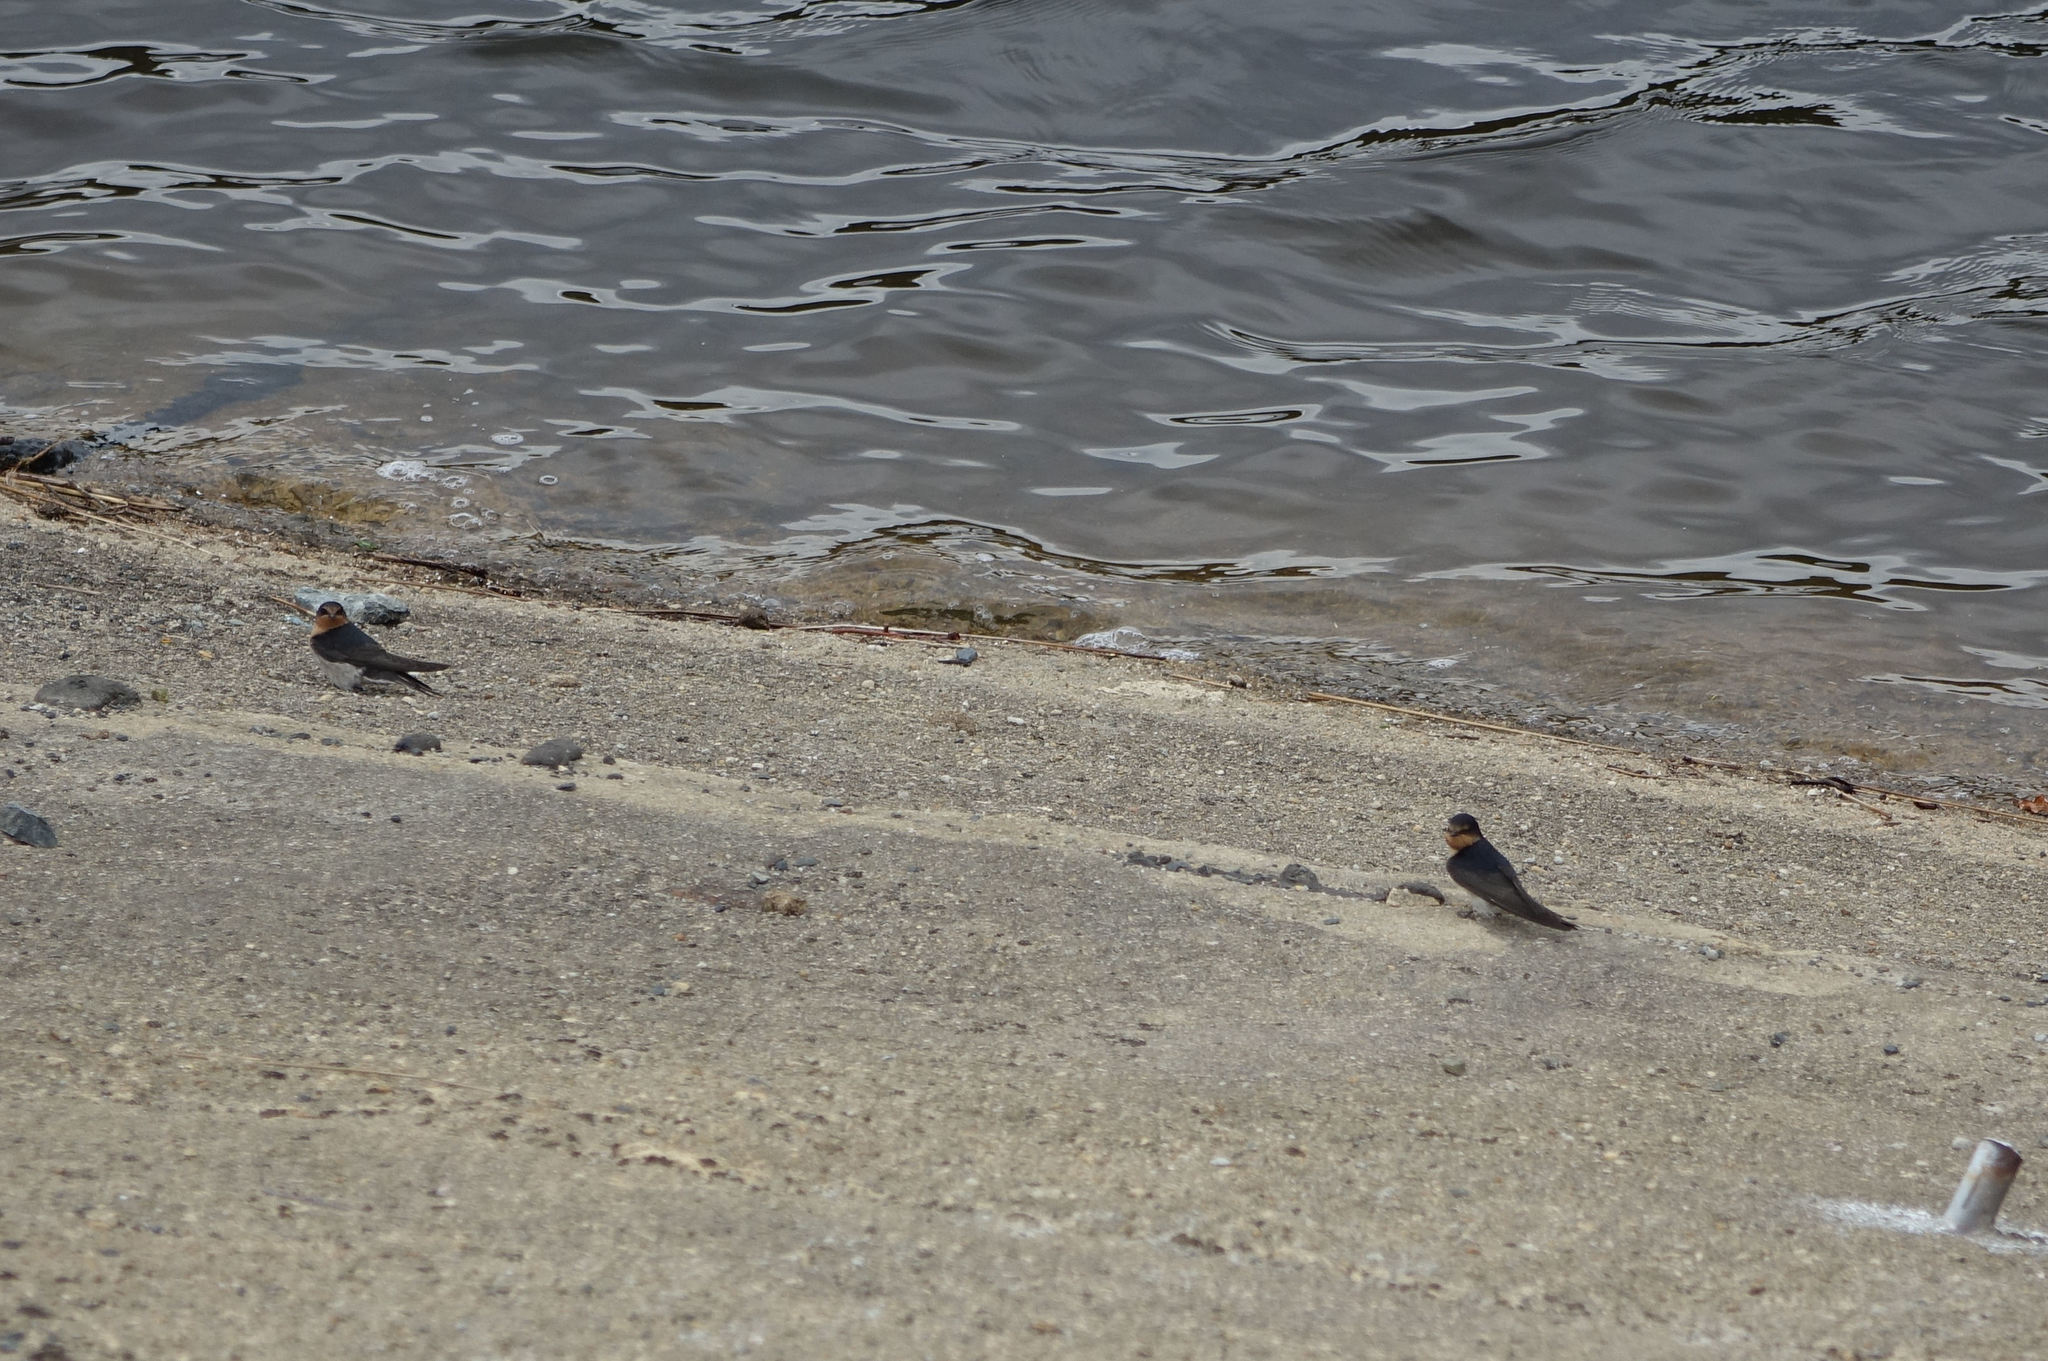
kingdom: Animalia
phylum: Chordata
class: Aves
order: Passeriformes
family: Hirundinidae
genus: Hirundo
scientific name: Hirundo neoxena
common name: Welcome swallow
